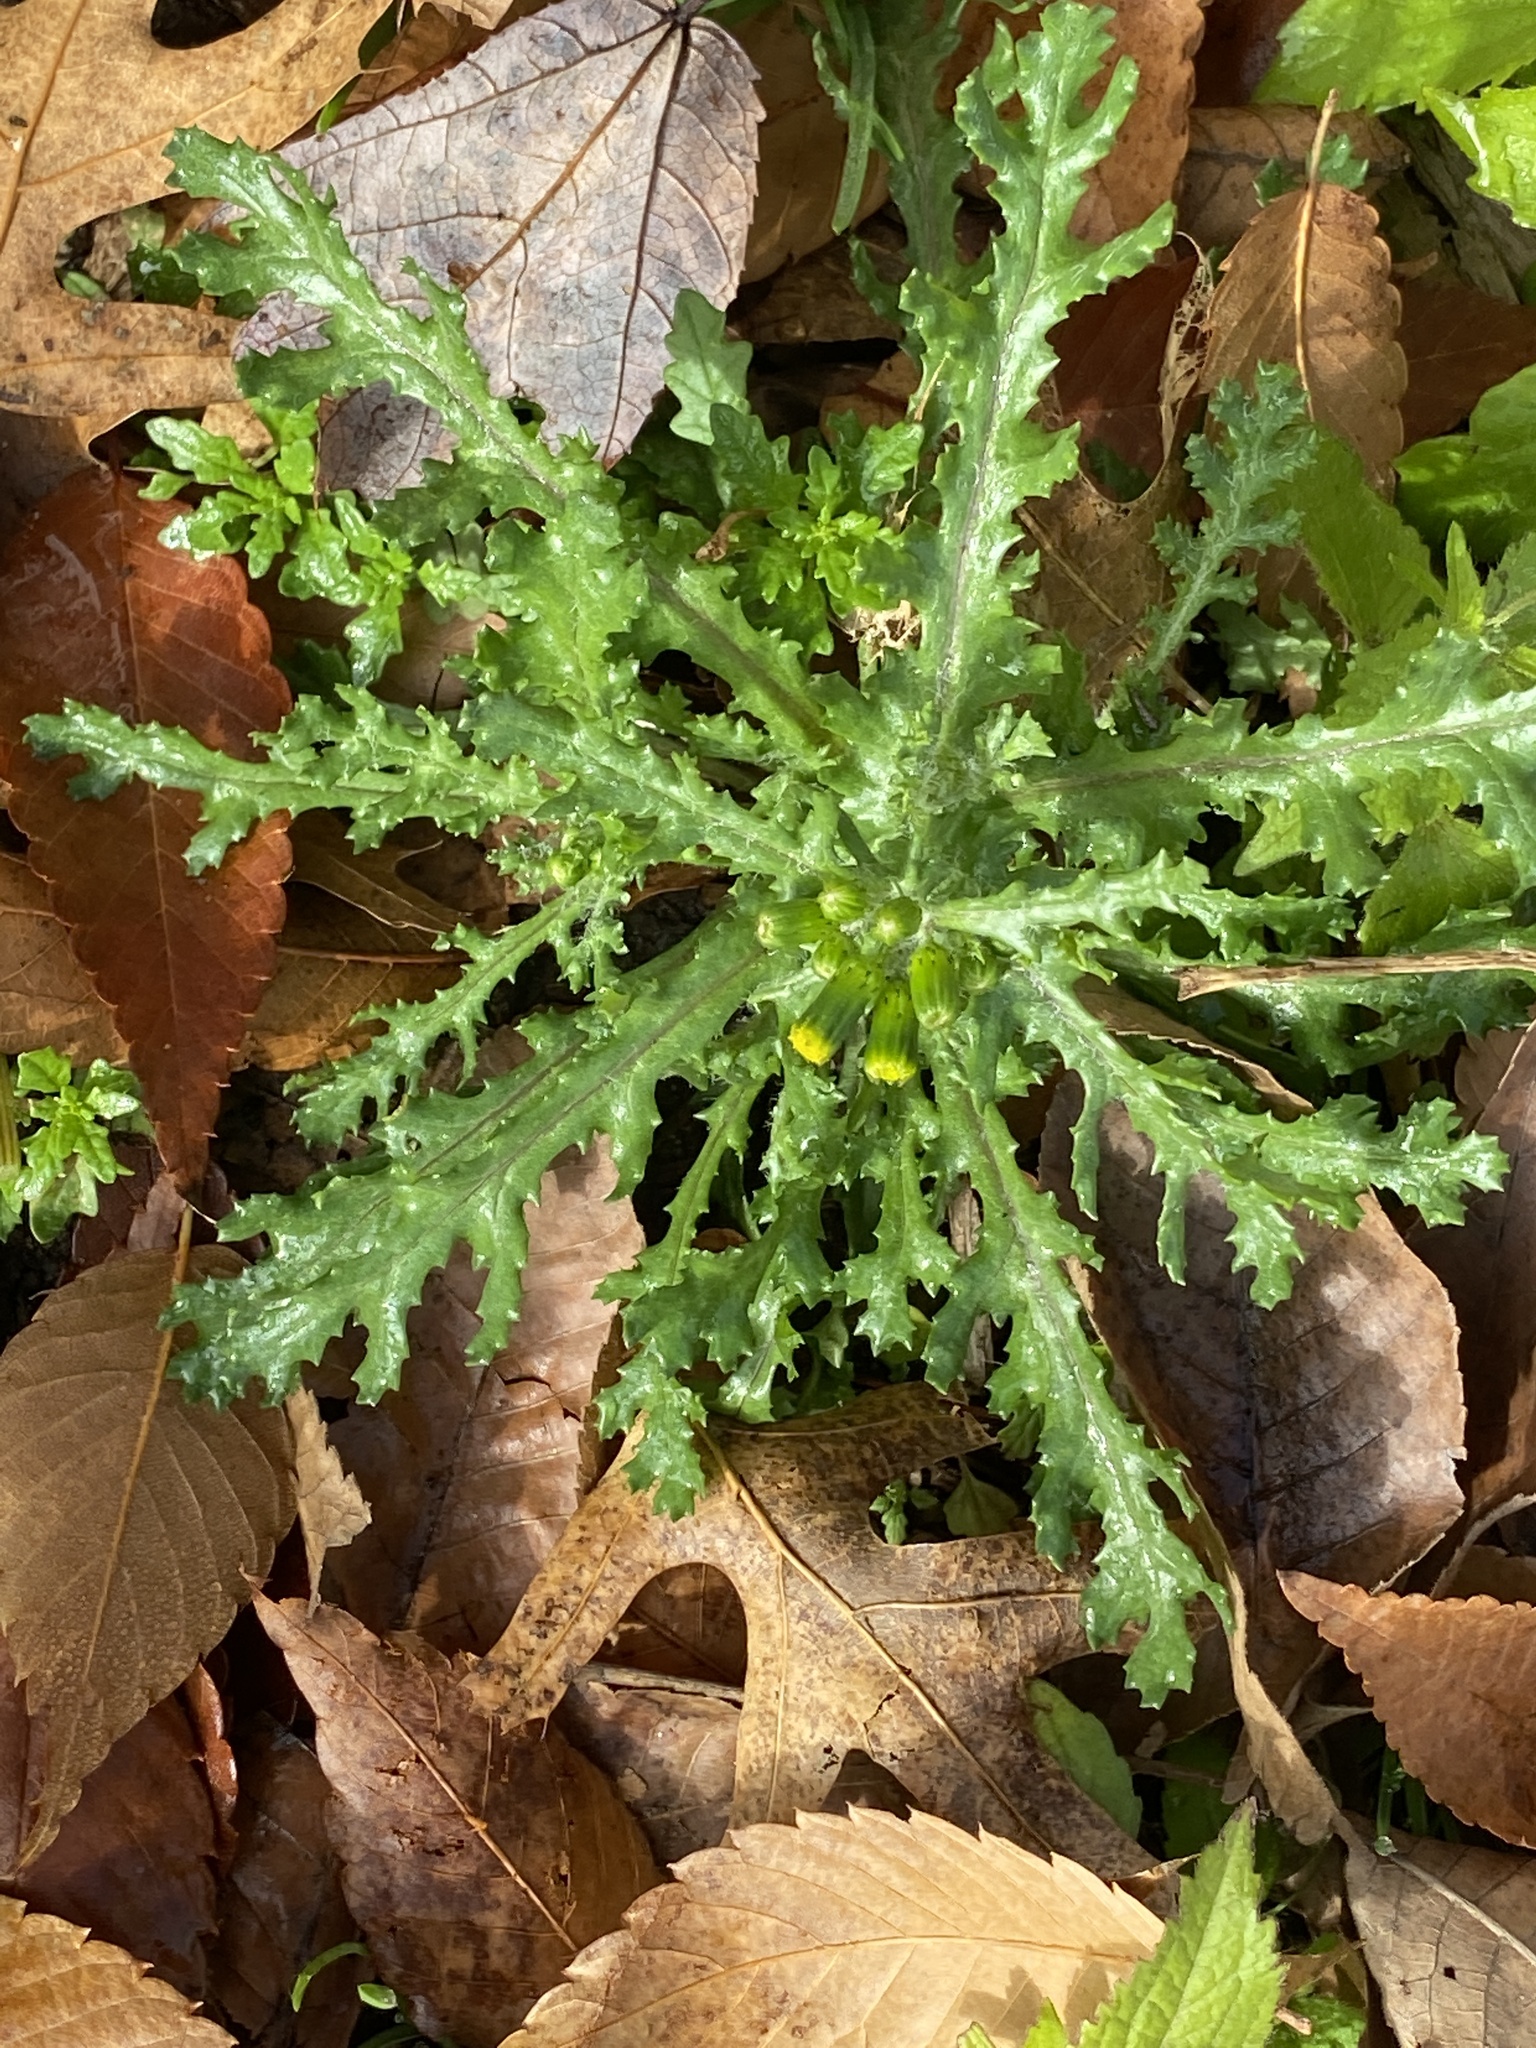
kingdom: Plantae
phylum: Tracheophyta
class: Magnoliopsida
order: Asterales
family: Asteraceae
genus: Senecio
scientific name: Senecio vulgaris
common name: Old-man-in-the-spring
